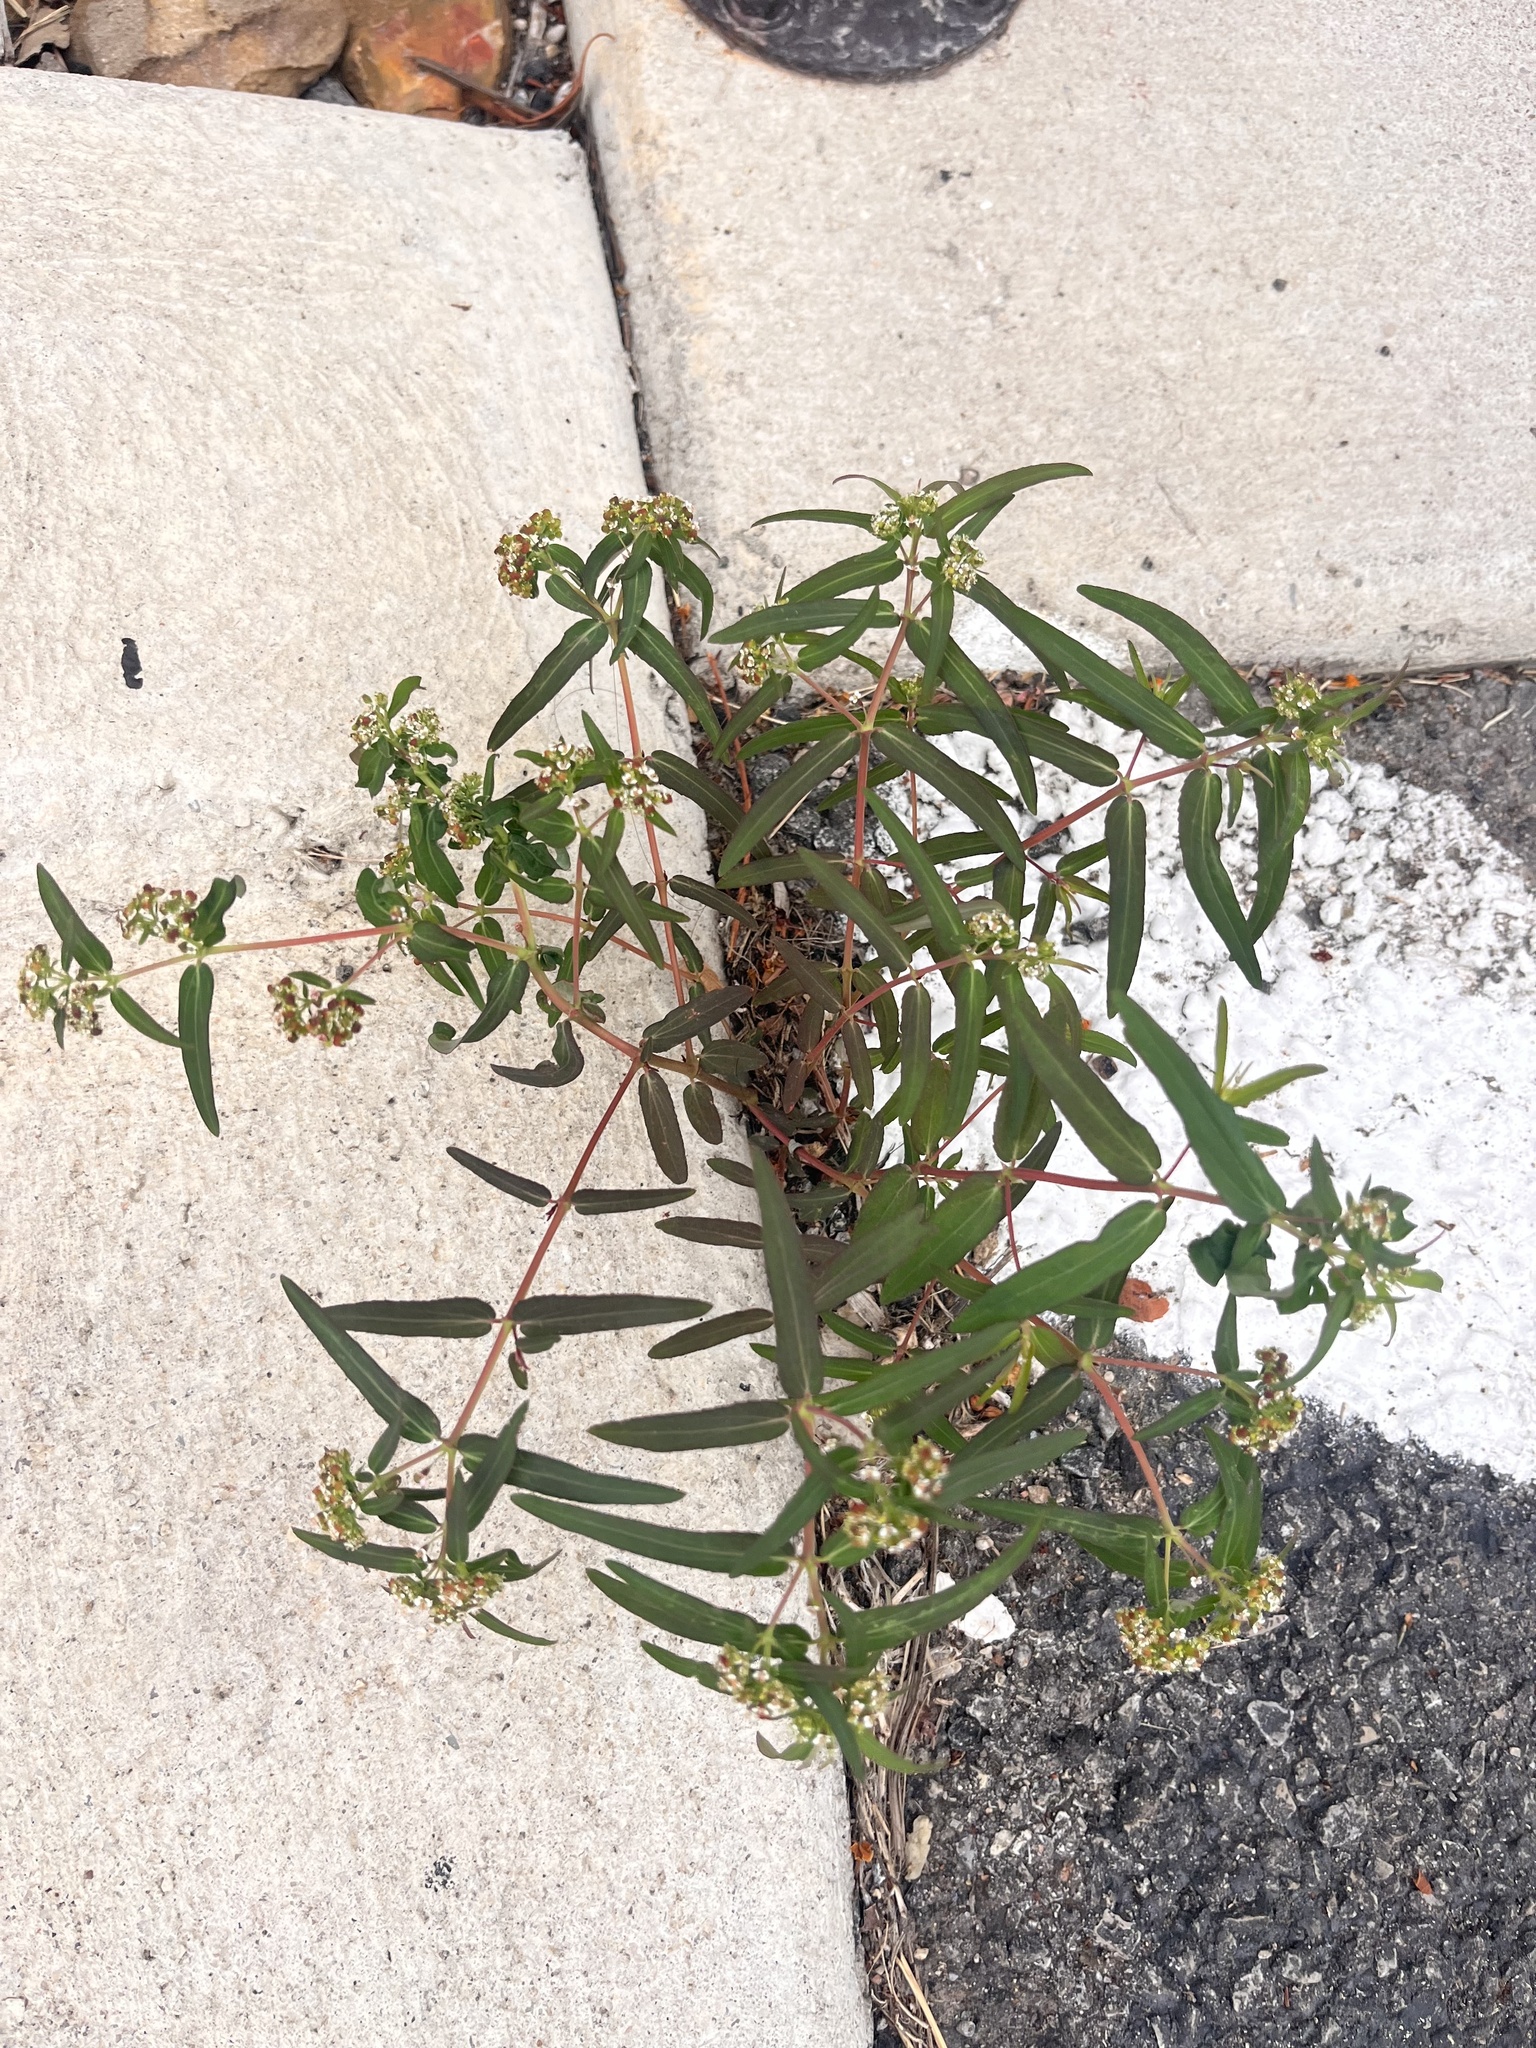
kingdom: Plantae
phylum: Tracheophyta
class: Magnoliopsida
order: Malpighiales
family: Euphorbiaceae
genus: Euphorbia
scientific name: Euphorbia nutans
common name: Eyebane
